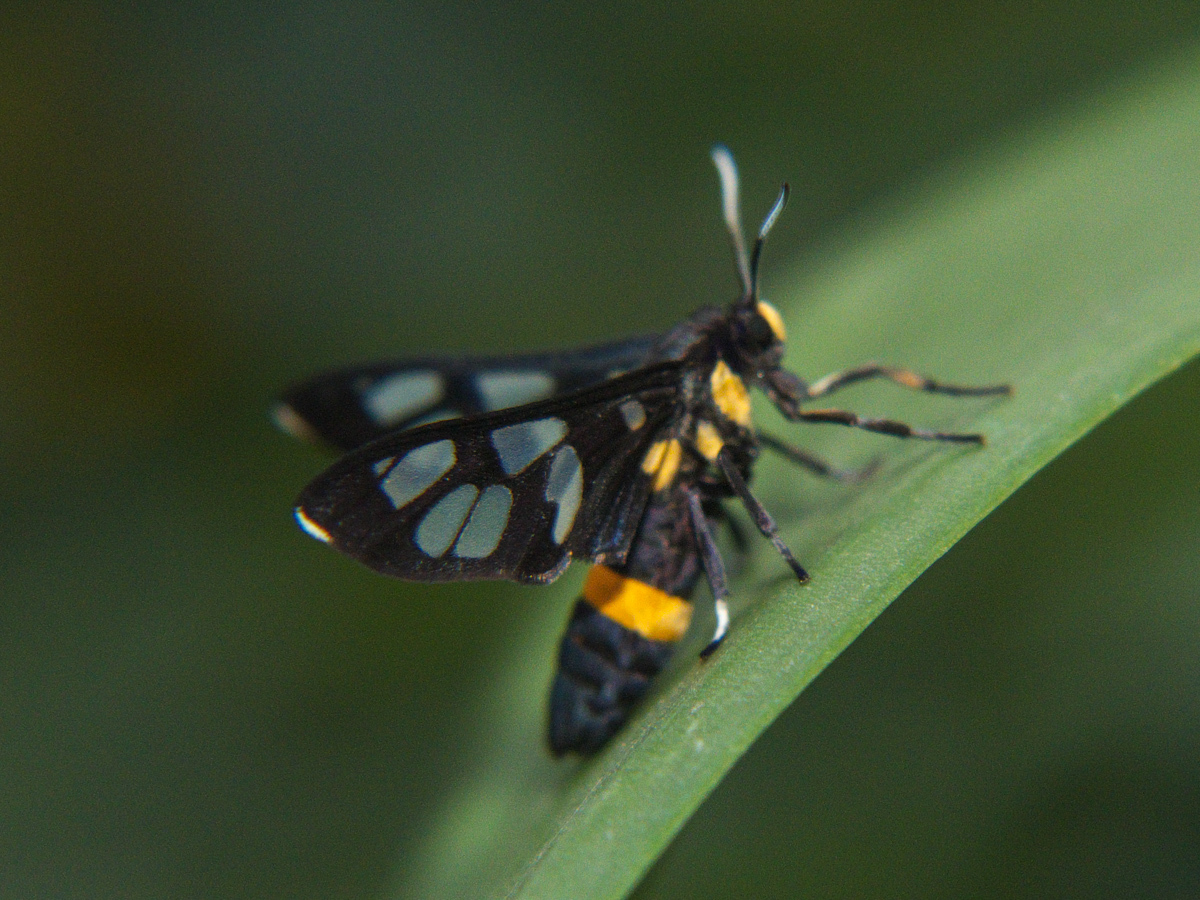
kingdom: Animalia
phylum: Arthropoda
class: Insecta
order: Lepidoptera
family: Erebidae
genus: Amata
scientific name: Amata sperbius
